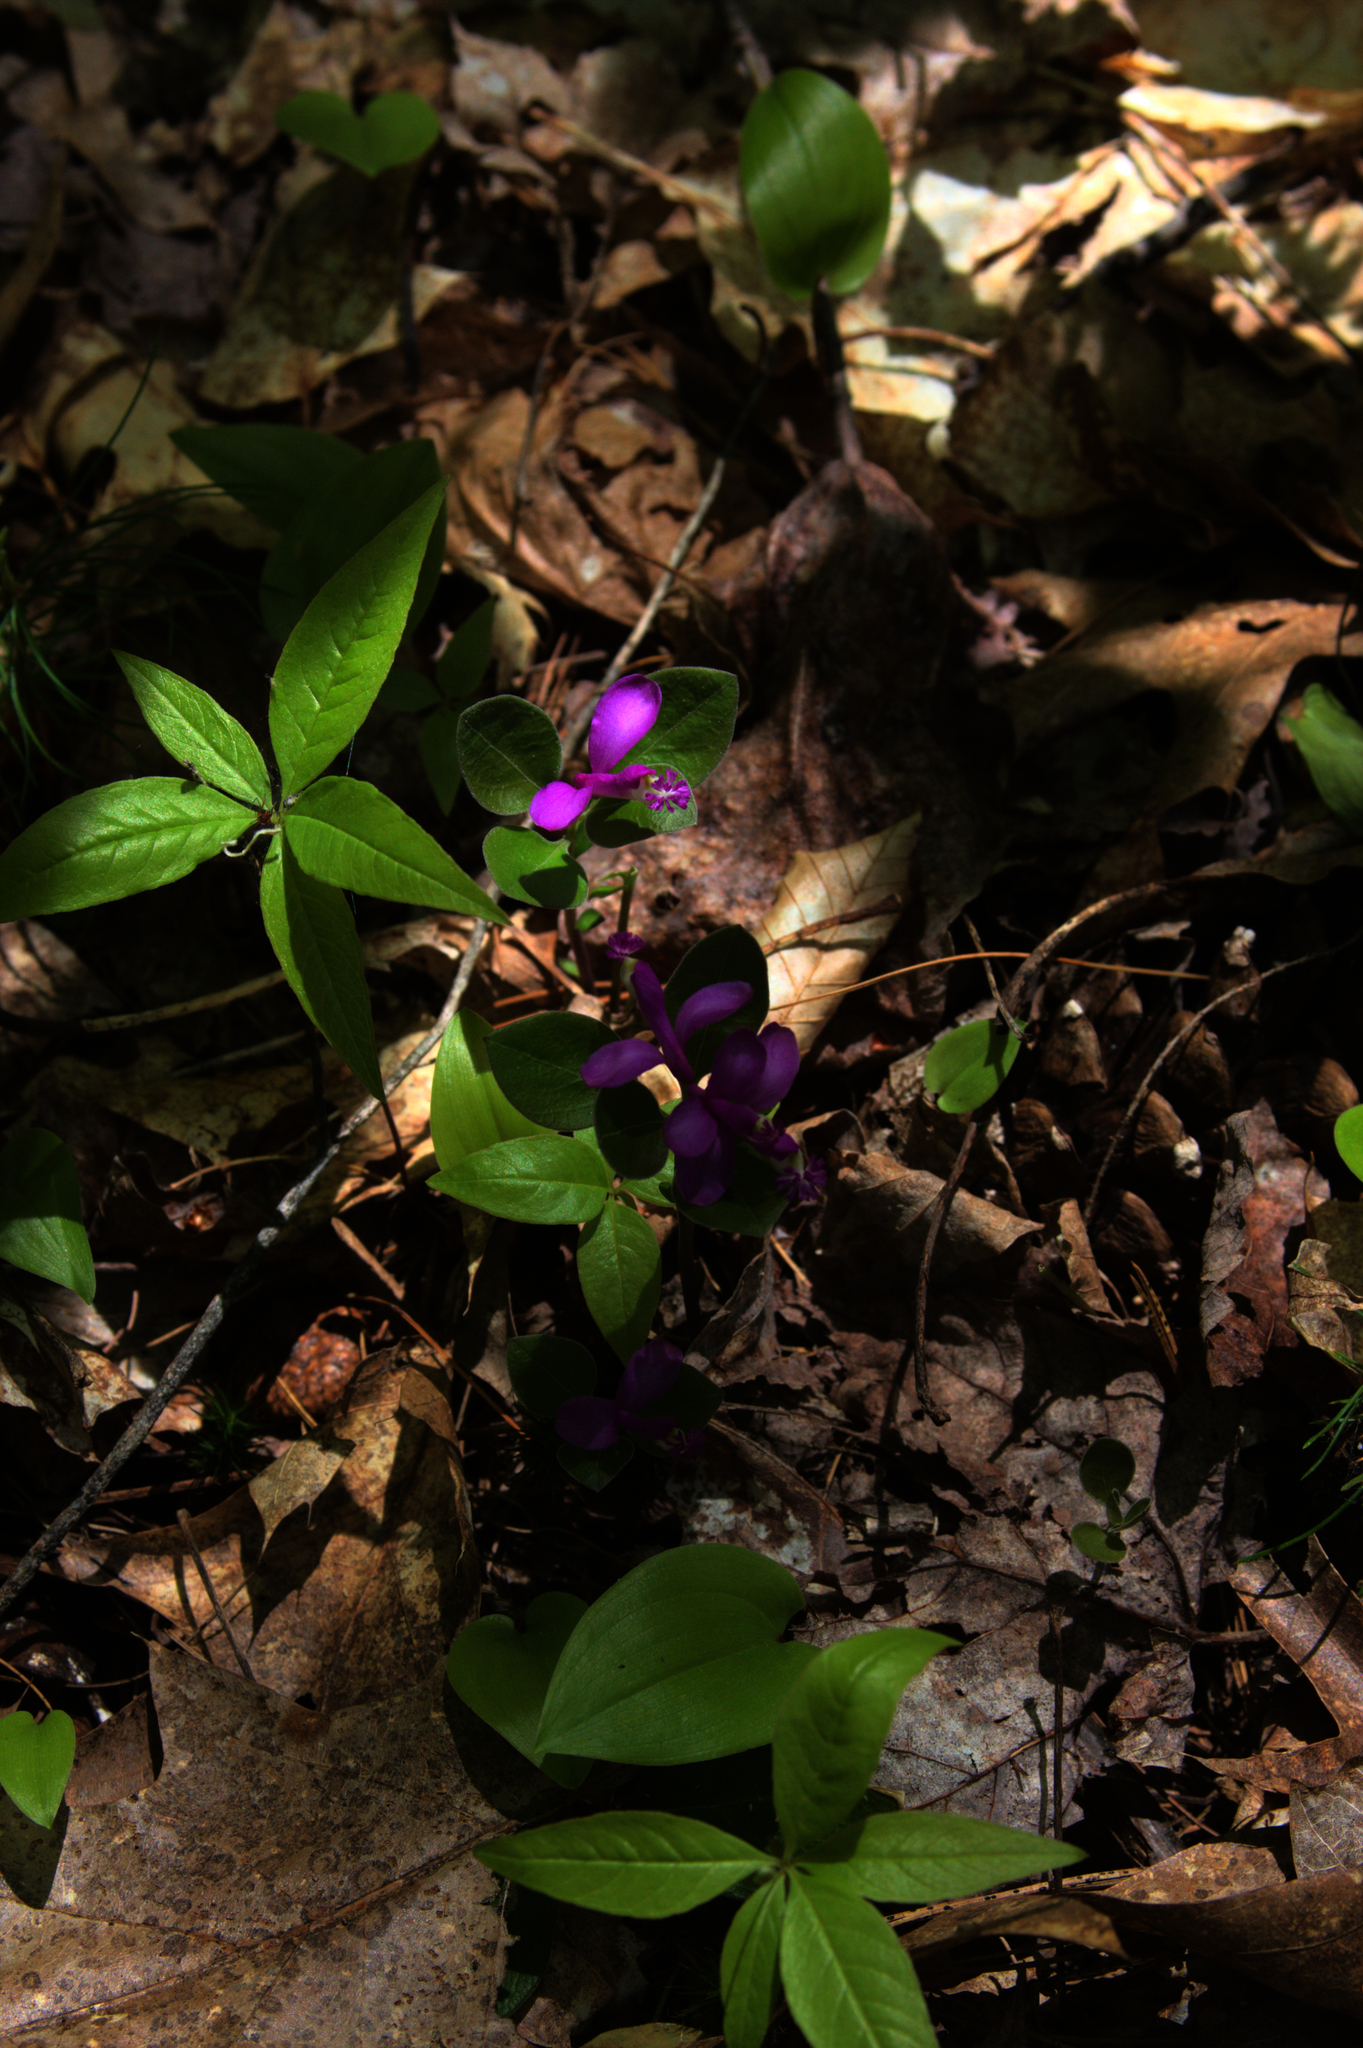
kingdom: Plantae
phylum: Tracheophyta
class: Magnoliopsida
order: Fabales
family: Polygalaceae
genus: Polygaloides
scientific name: Polygaloides paucifolia
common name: Bird-on-the-wing
